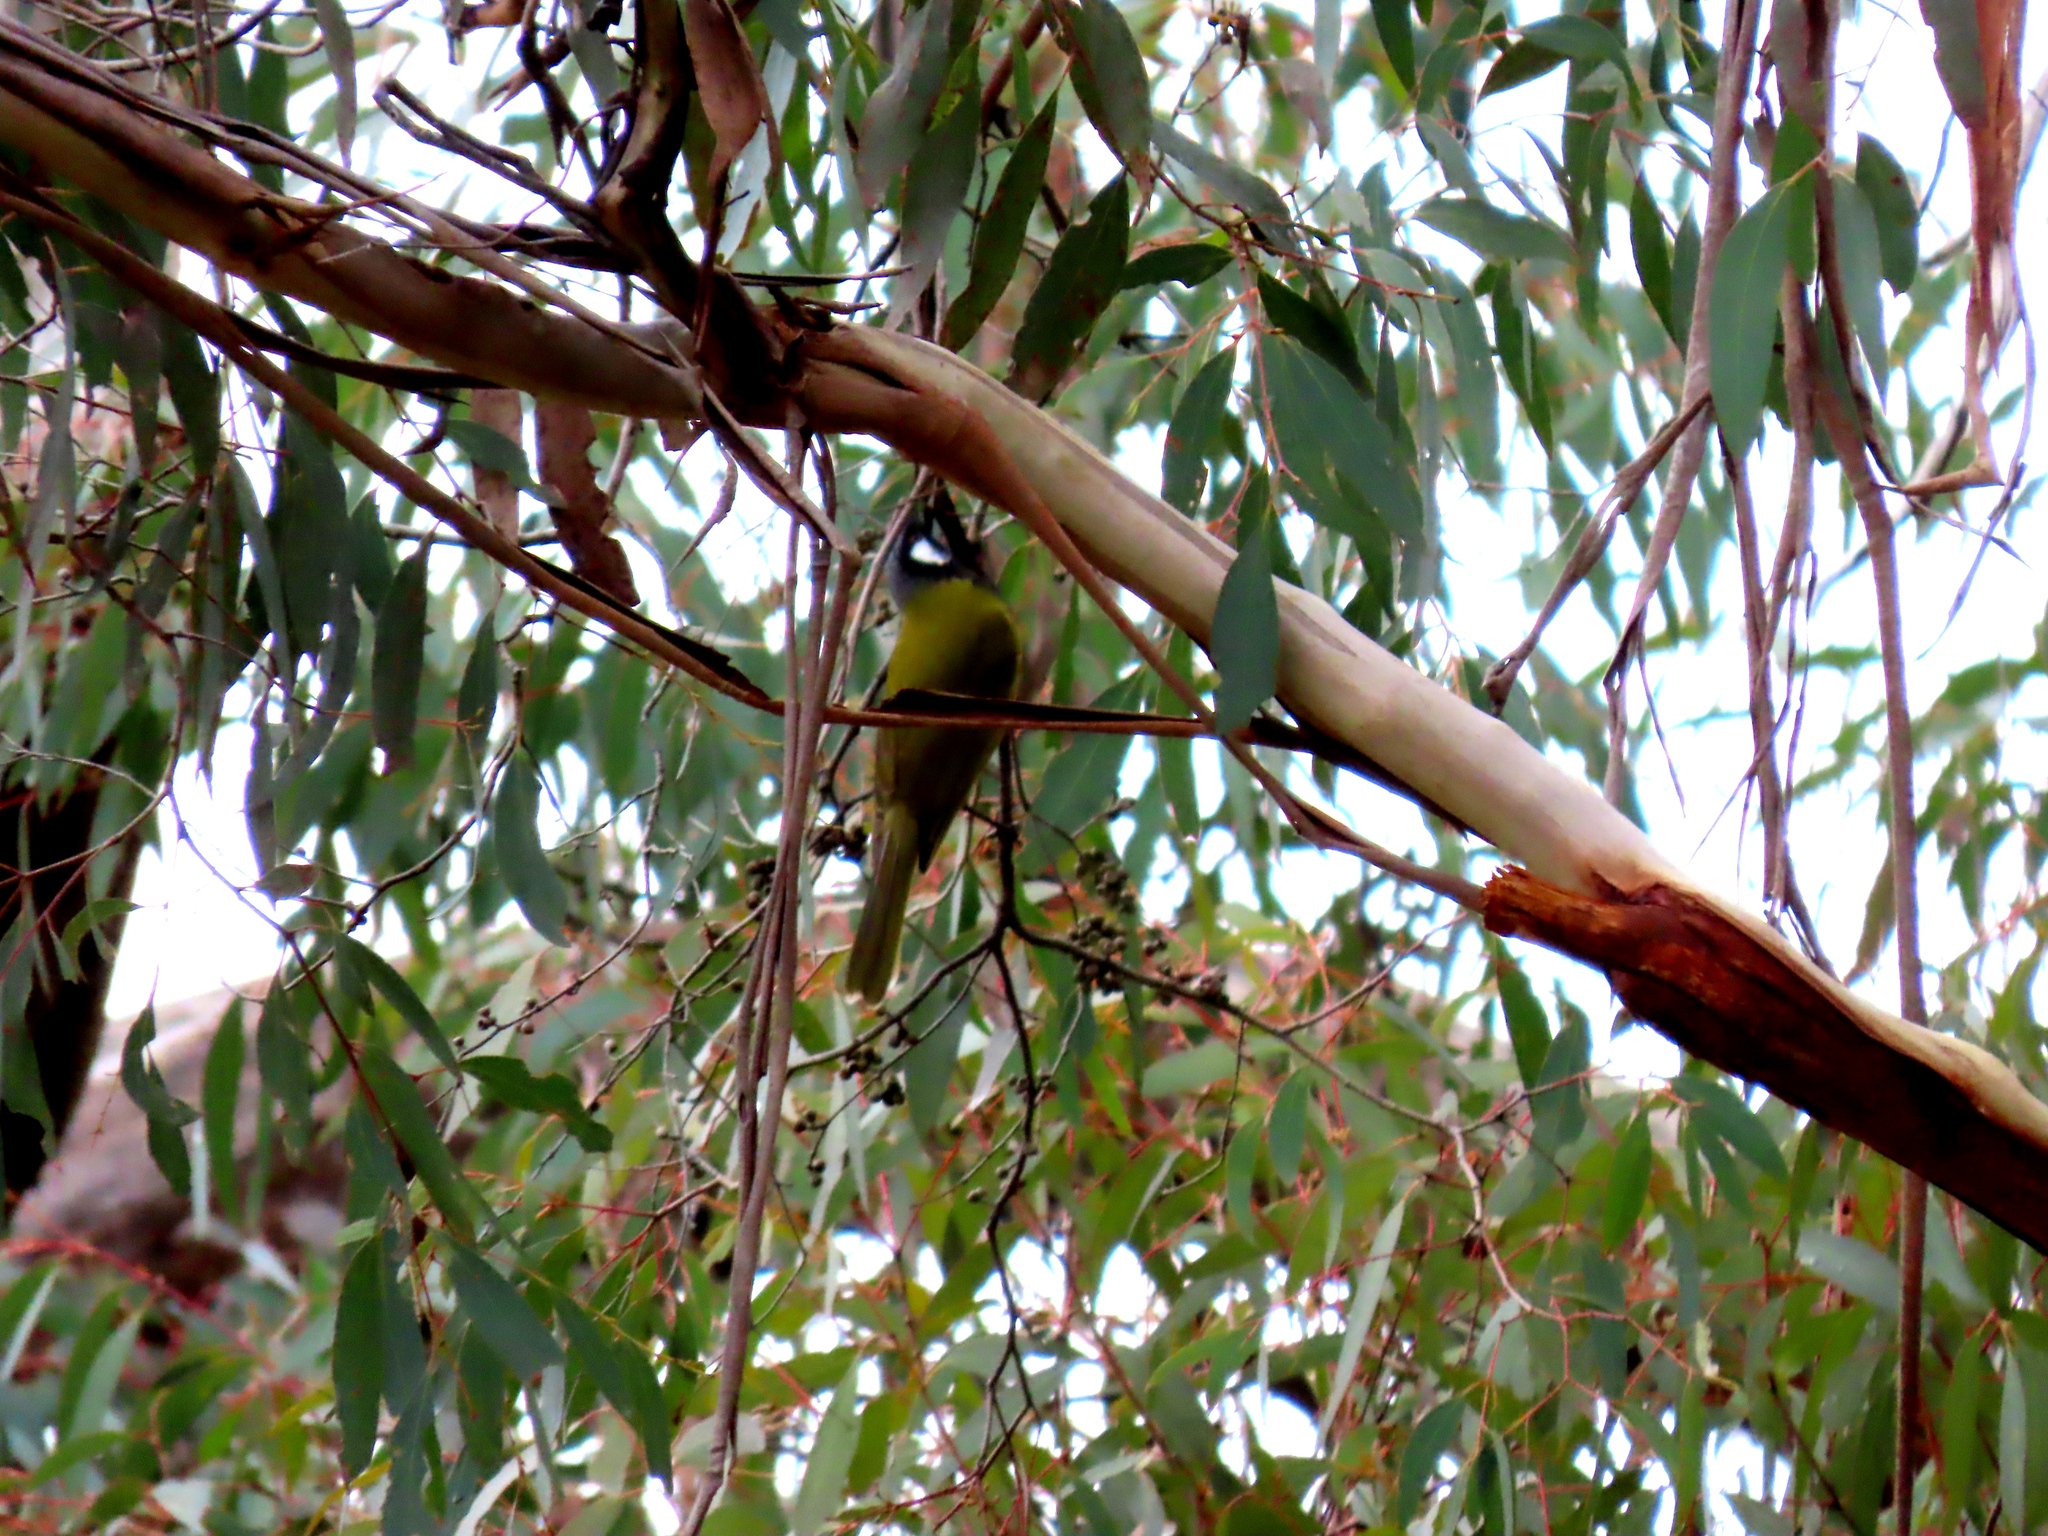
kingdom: Animalia
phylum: Chordata
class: Aves
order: Passeriformes
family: Meliphagidae
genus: Nesoptilotis
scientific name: Nesoptilotis leucotis
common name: White-eared honeyeater
